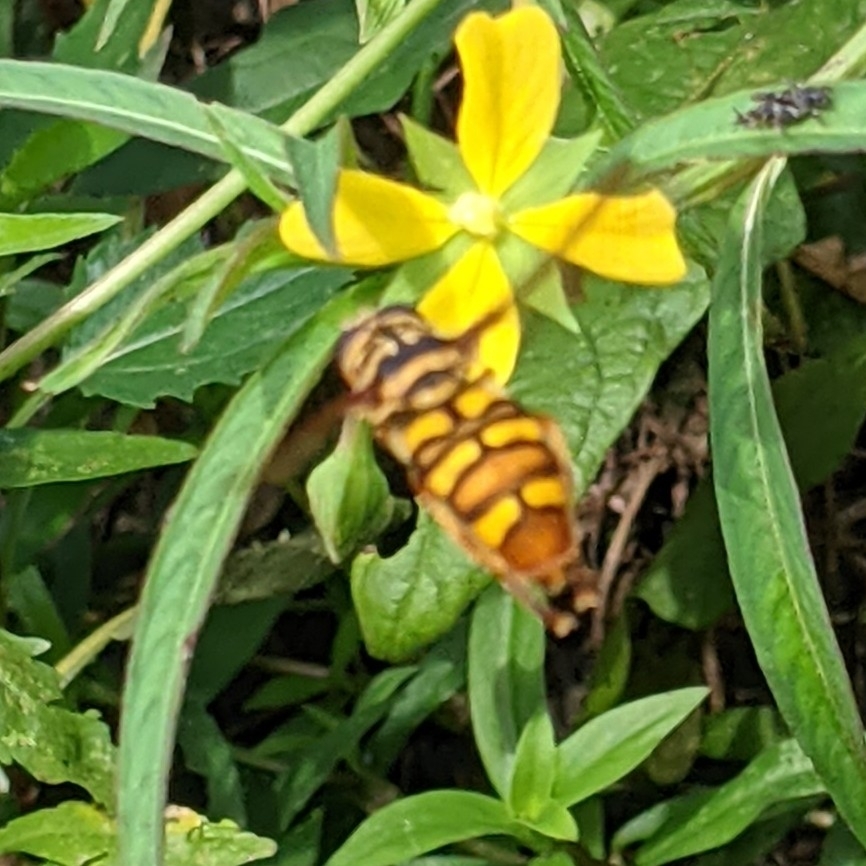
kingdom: Animalia
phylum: Arthropoda
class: Insecta
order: Diptera
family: Syrphidae
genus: Milesia
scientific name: Milesia virginiensis
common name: Virginia giant
